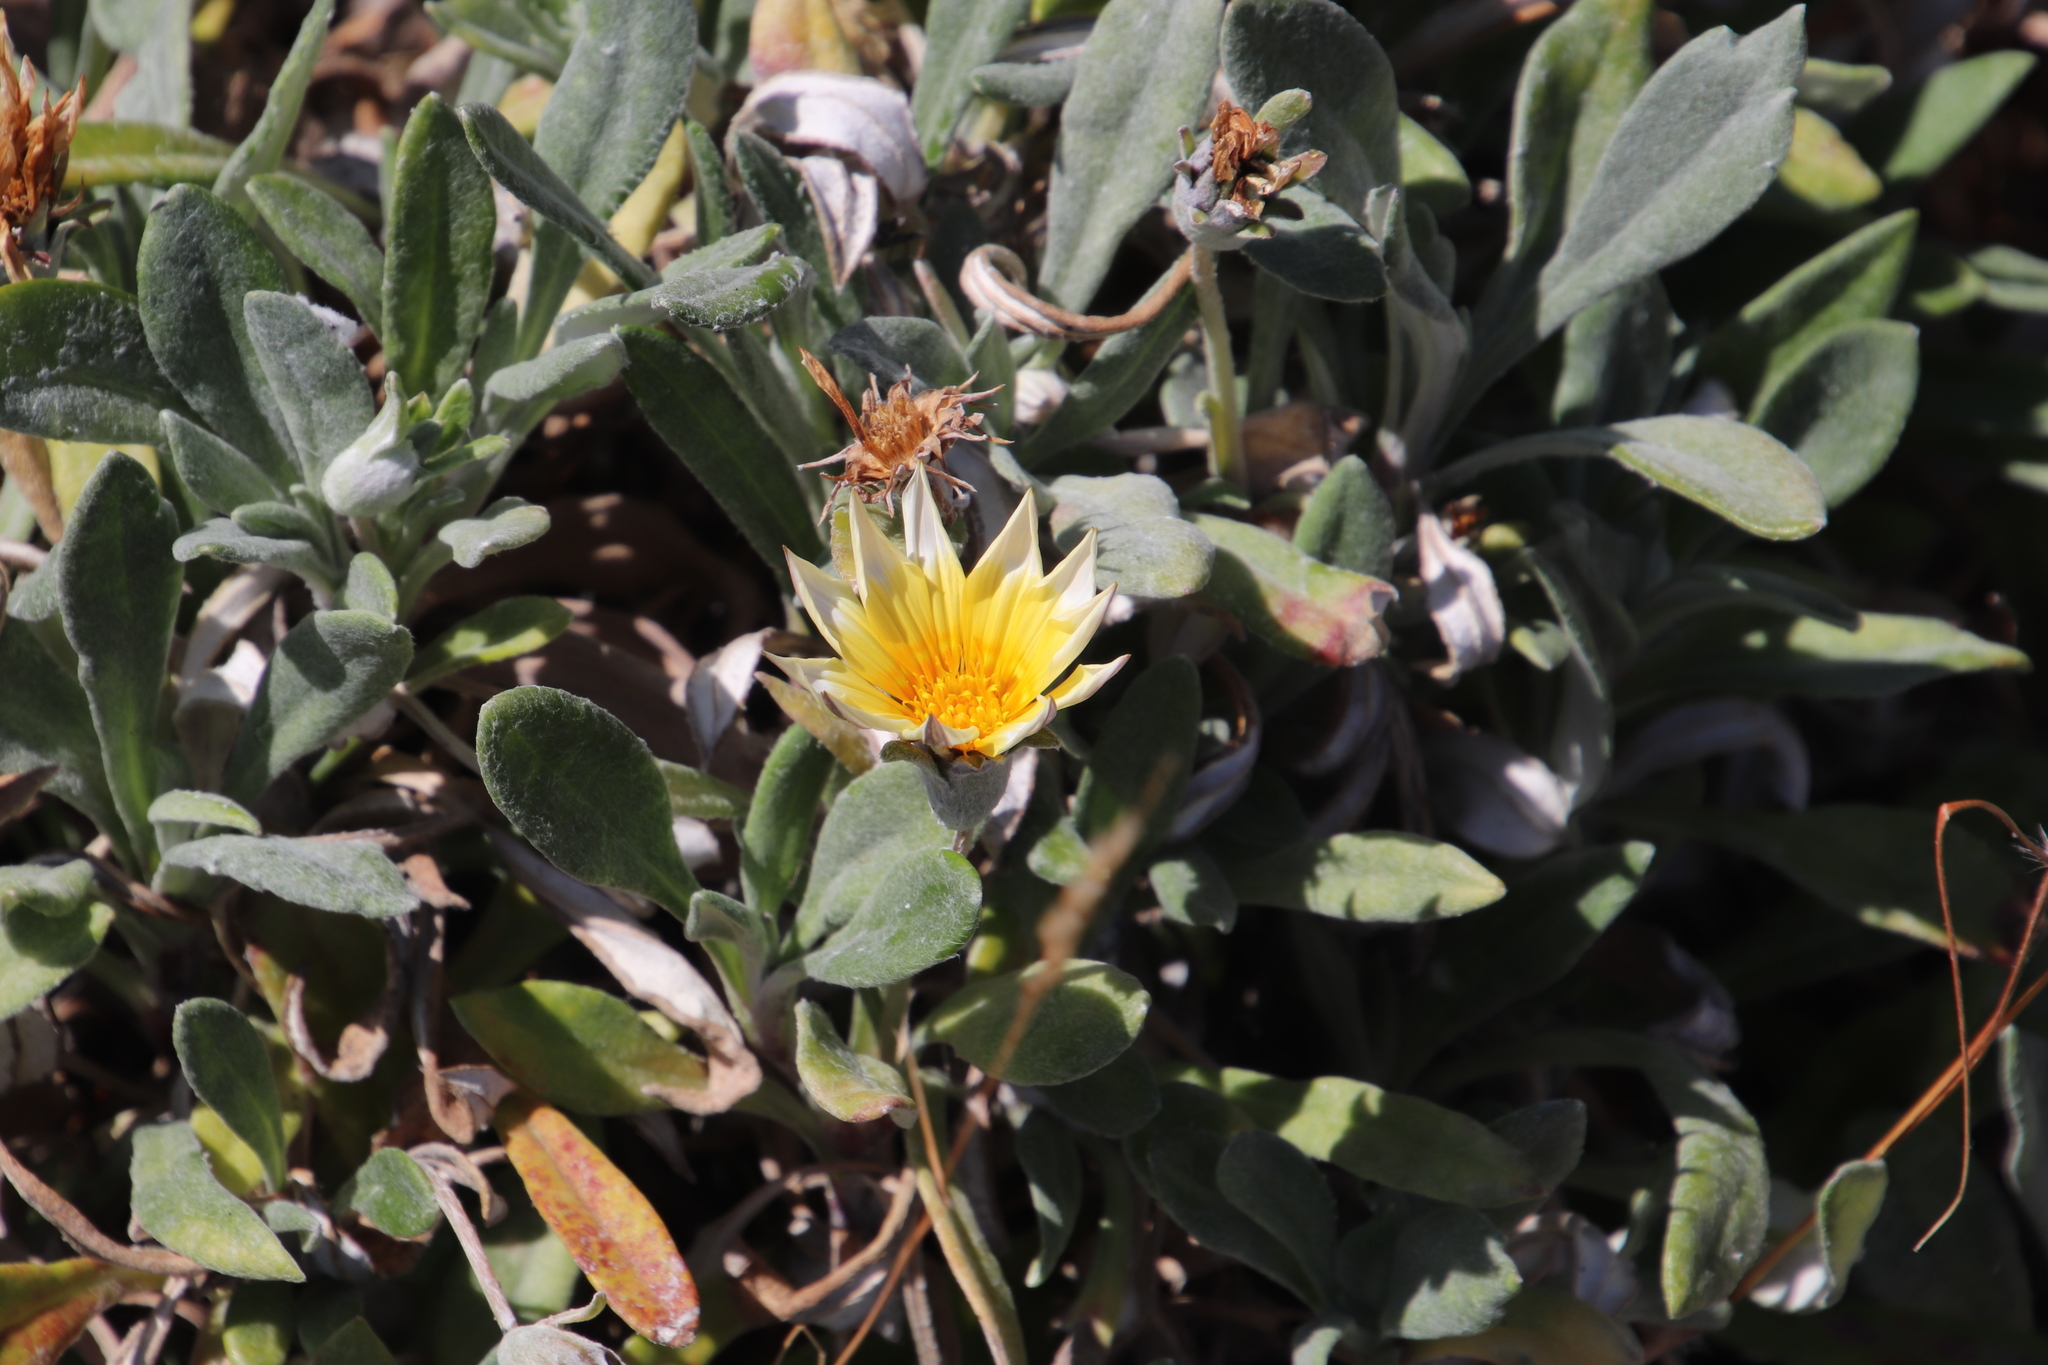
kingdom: Plantae
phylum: Tracheophyta
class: Magnoliopsida
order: Asterales
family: Asteraceae
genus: Gazania
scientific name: Gazania splendens
